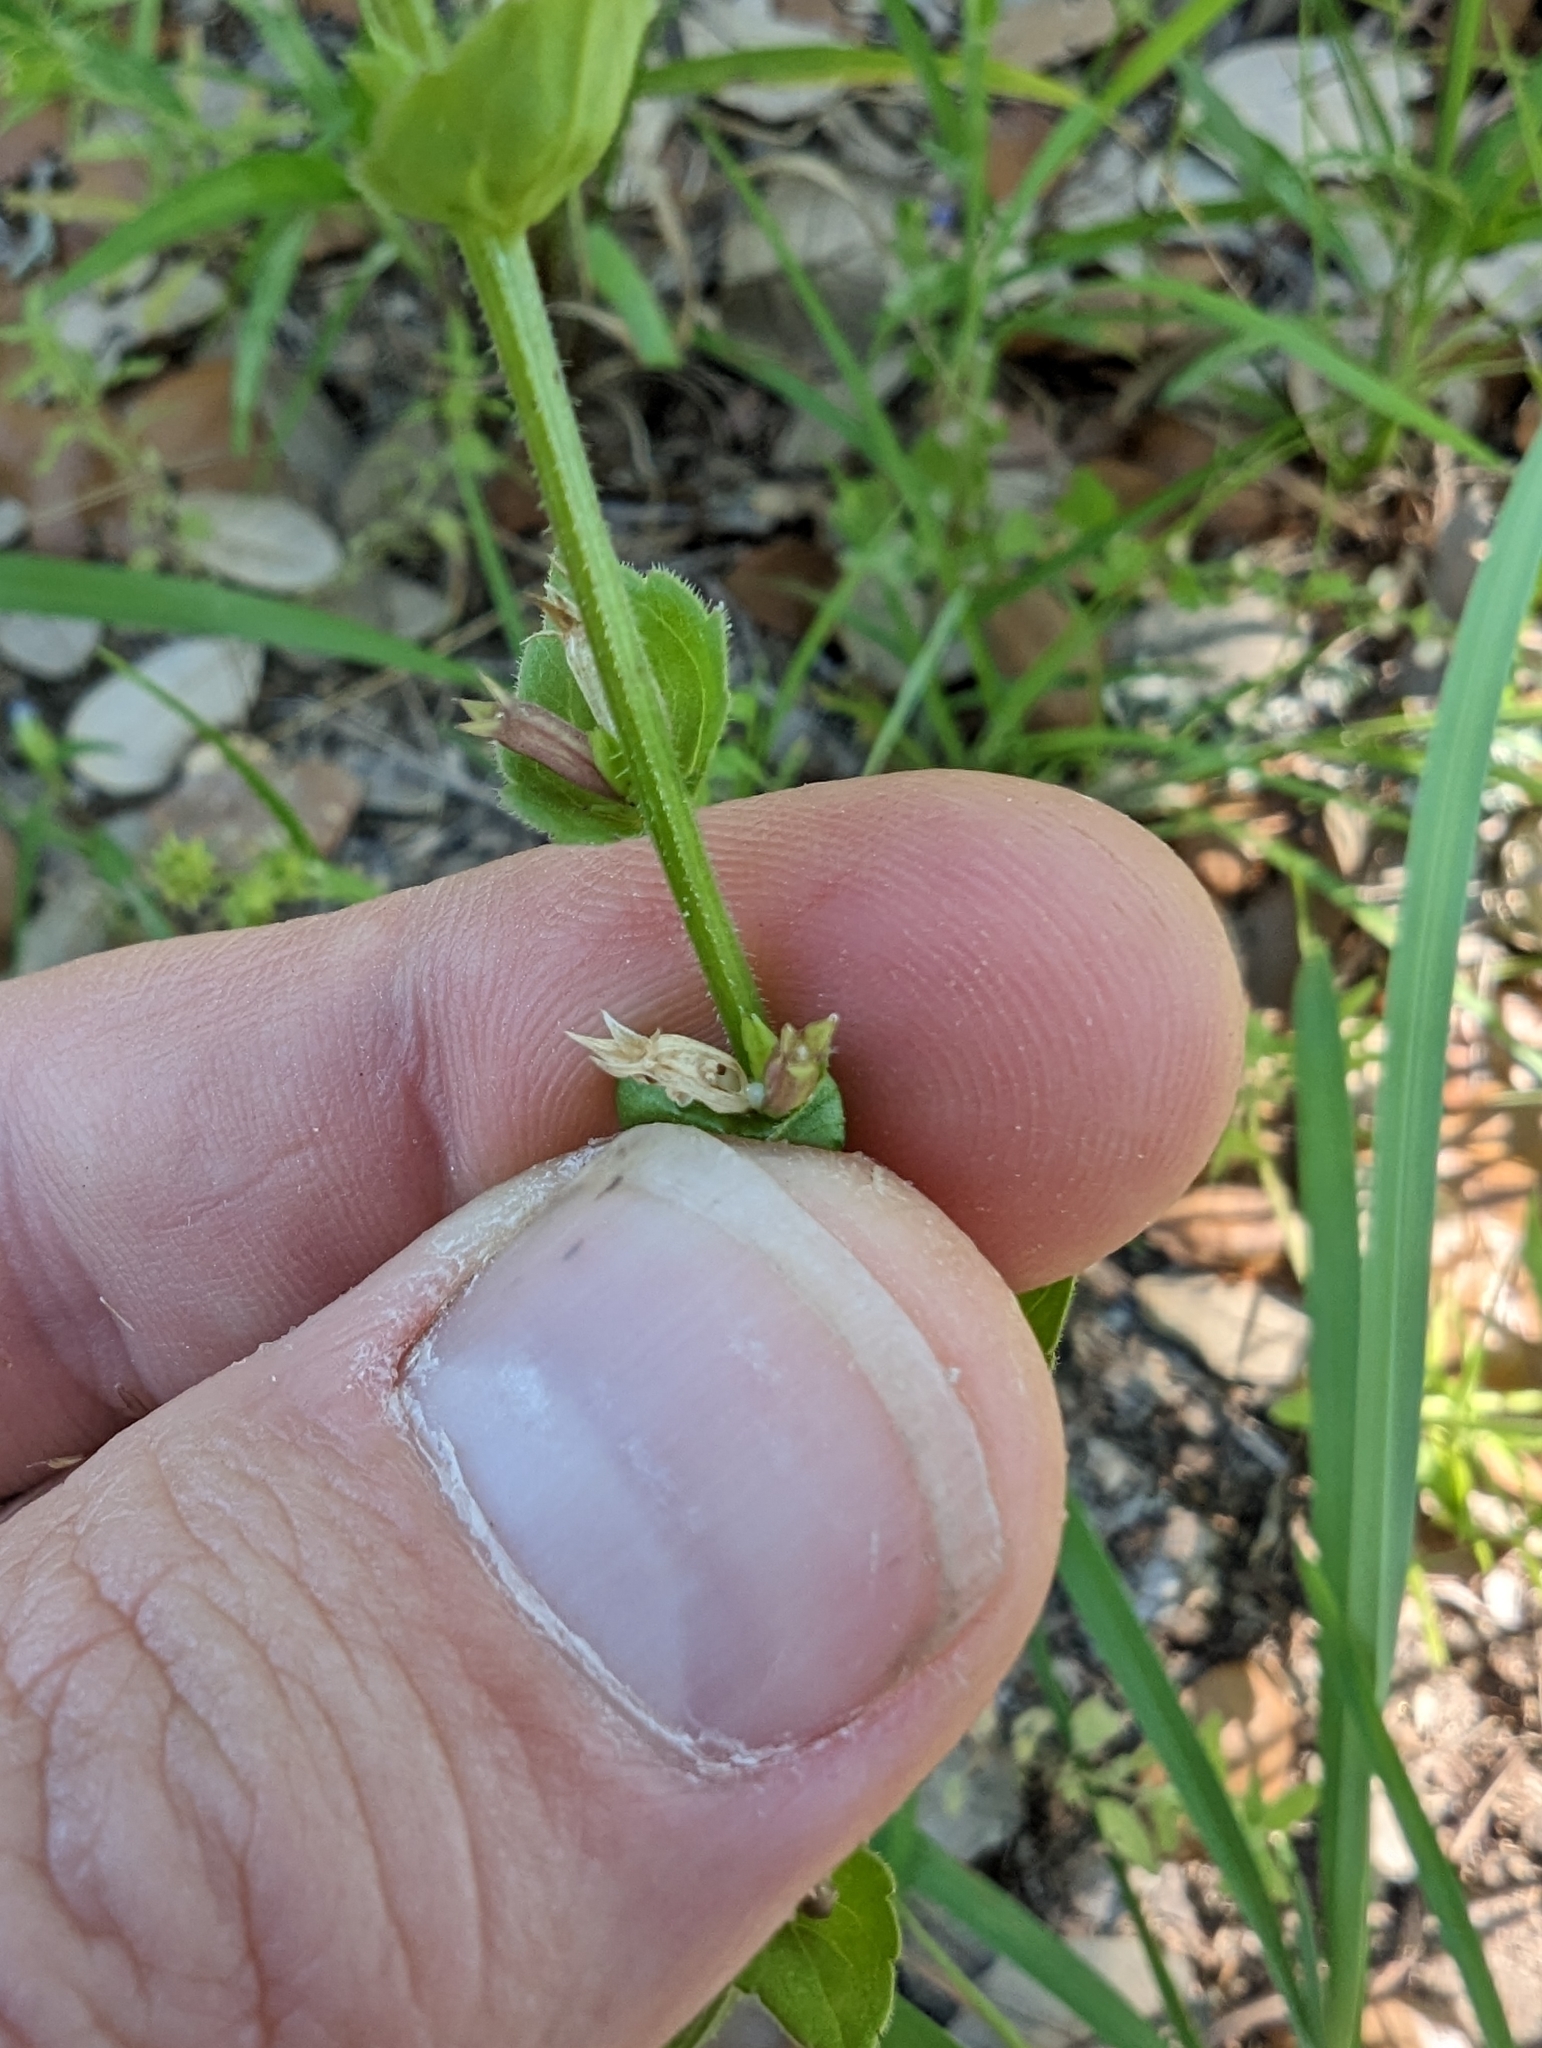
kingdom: Plantae
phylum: Tracheophyta
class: Magnoliopsida
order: Asterales
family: Campanulaceae
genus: Triodanis
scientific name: Triodanis biflora
